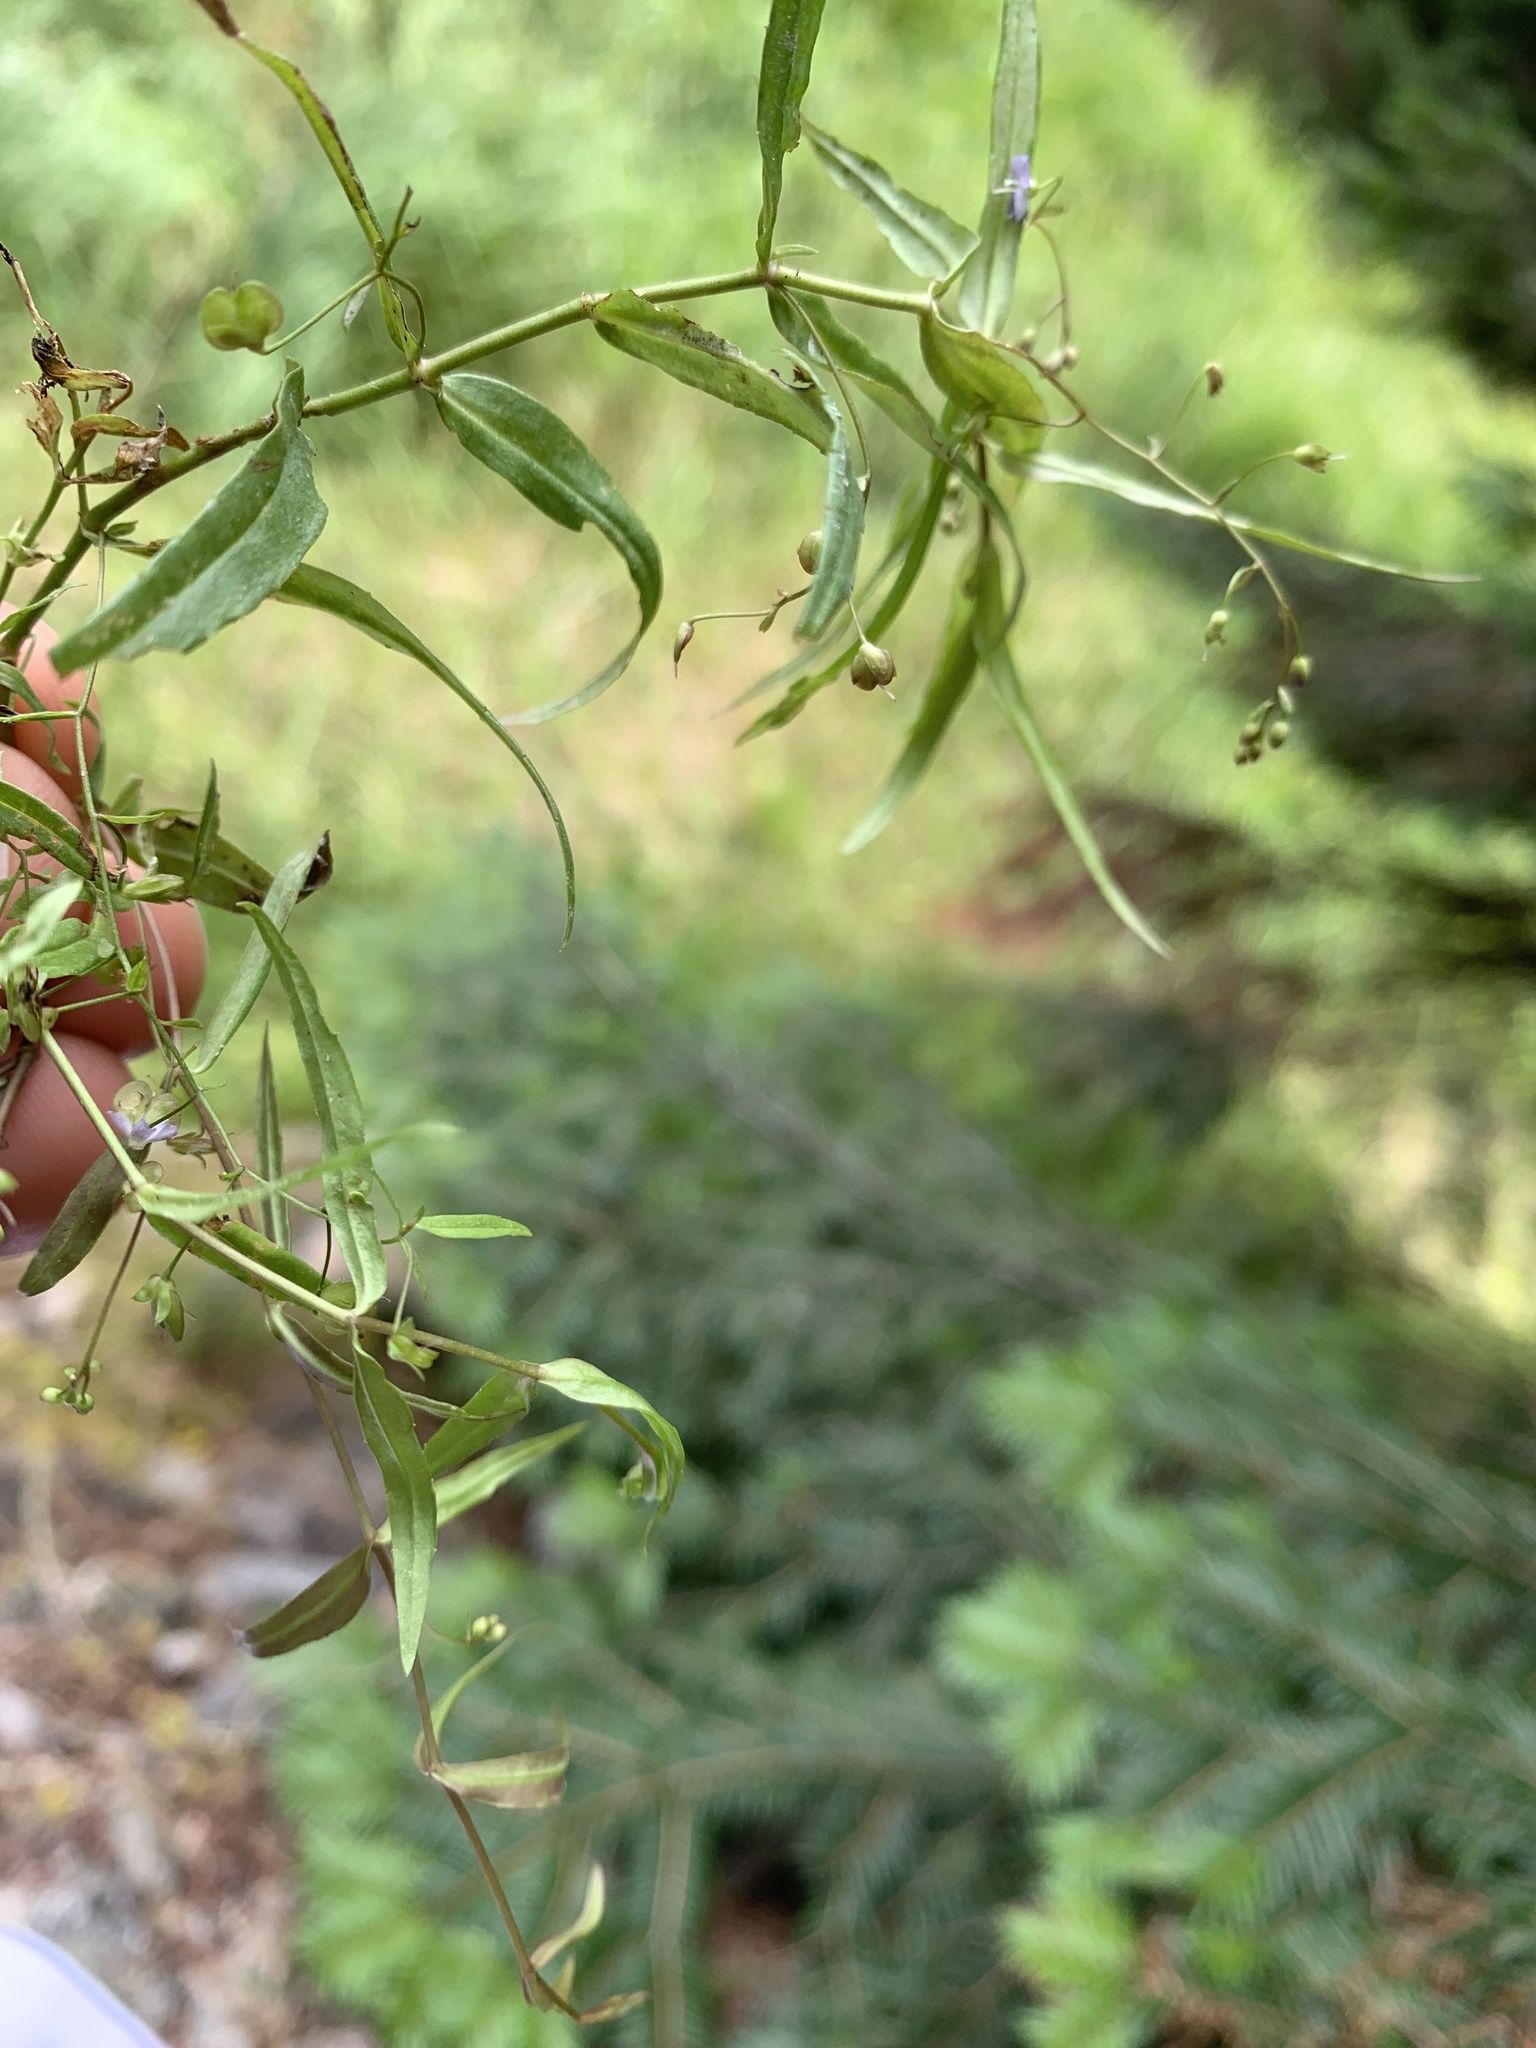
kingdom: Plantae
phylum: Tracheophyta
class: Magnoliopsida
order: Lamiales
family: Plantaginaceae
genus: Veronica
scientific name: Veronica scutellata
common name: Marsh speedwell
